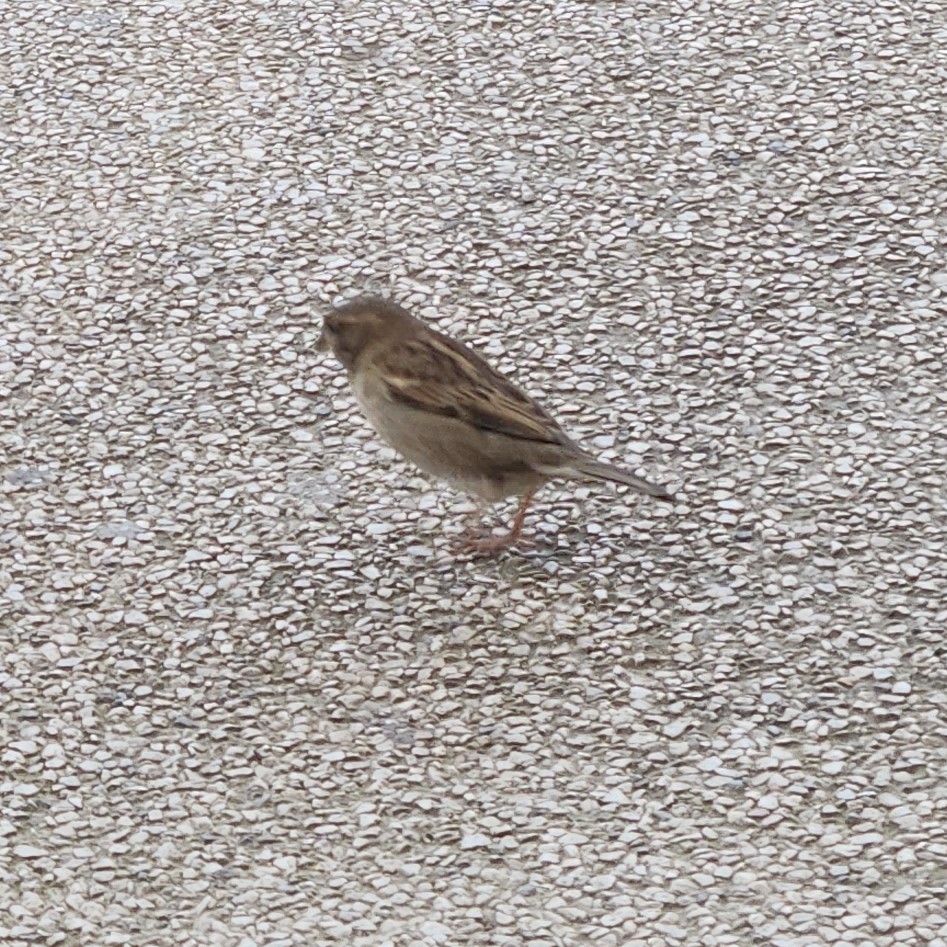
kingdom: Animalia
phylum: Chordata
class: Aves
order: Passeriformes
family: Passeridae
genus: Passer
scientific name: Passer domesticus
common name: House sparrow
